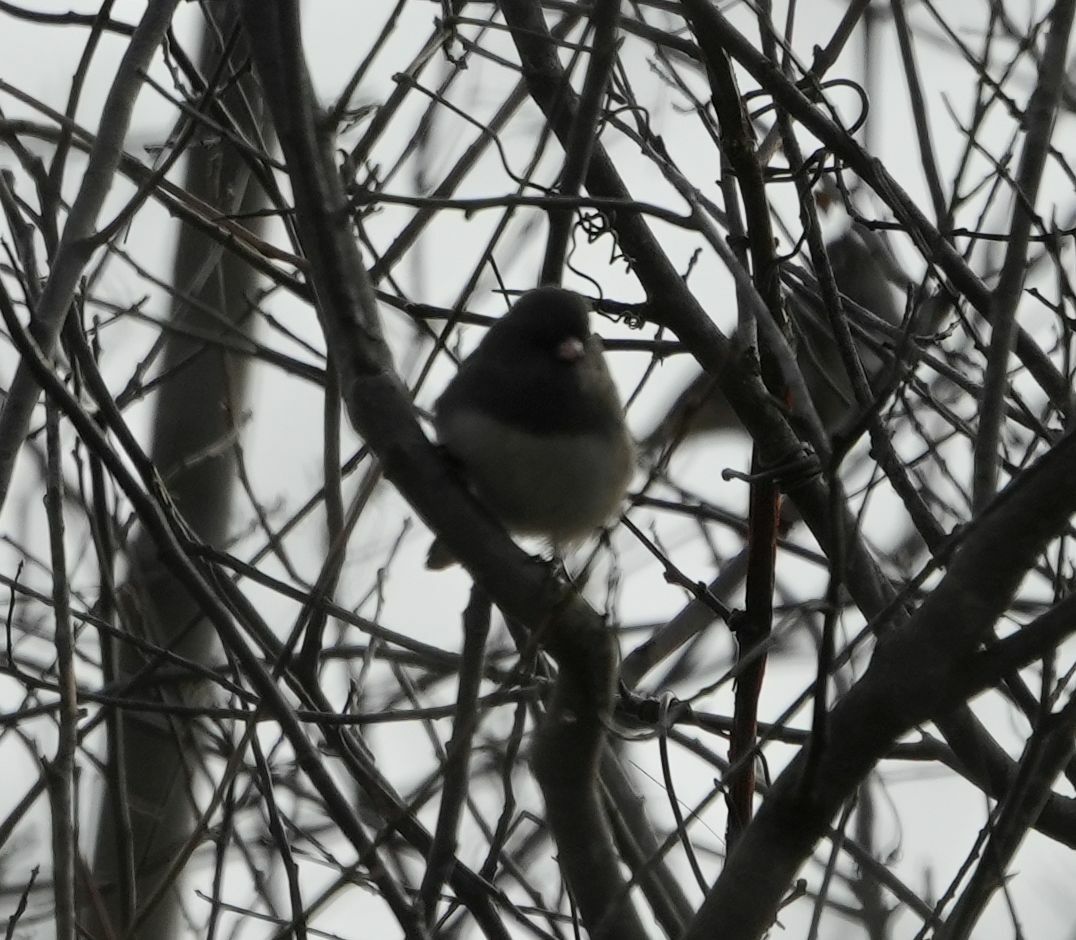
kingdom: Animalia
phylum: Chordata
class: Aves
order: Passeriformes
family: Passerellidae
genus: Junco
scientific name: Junco hyemalis
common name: Dark-eyed junco
